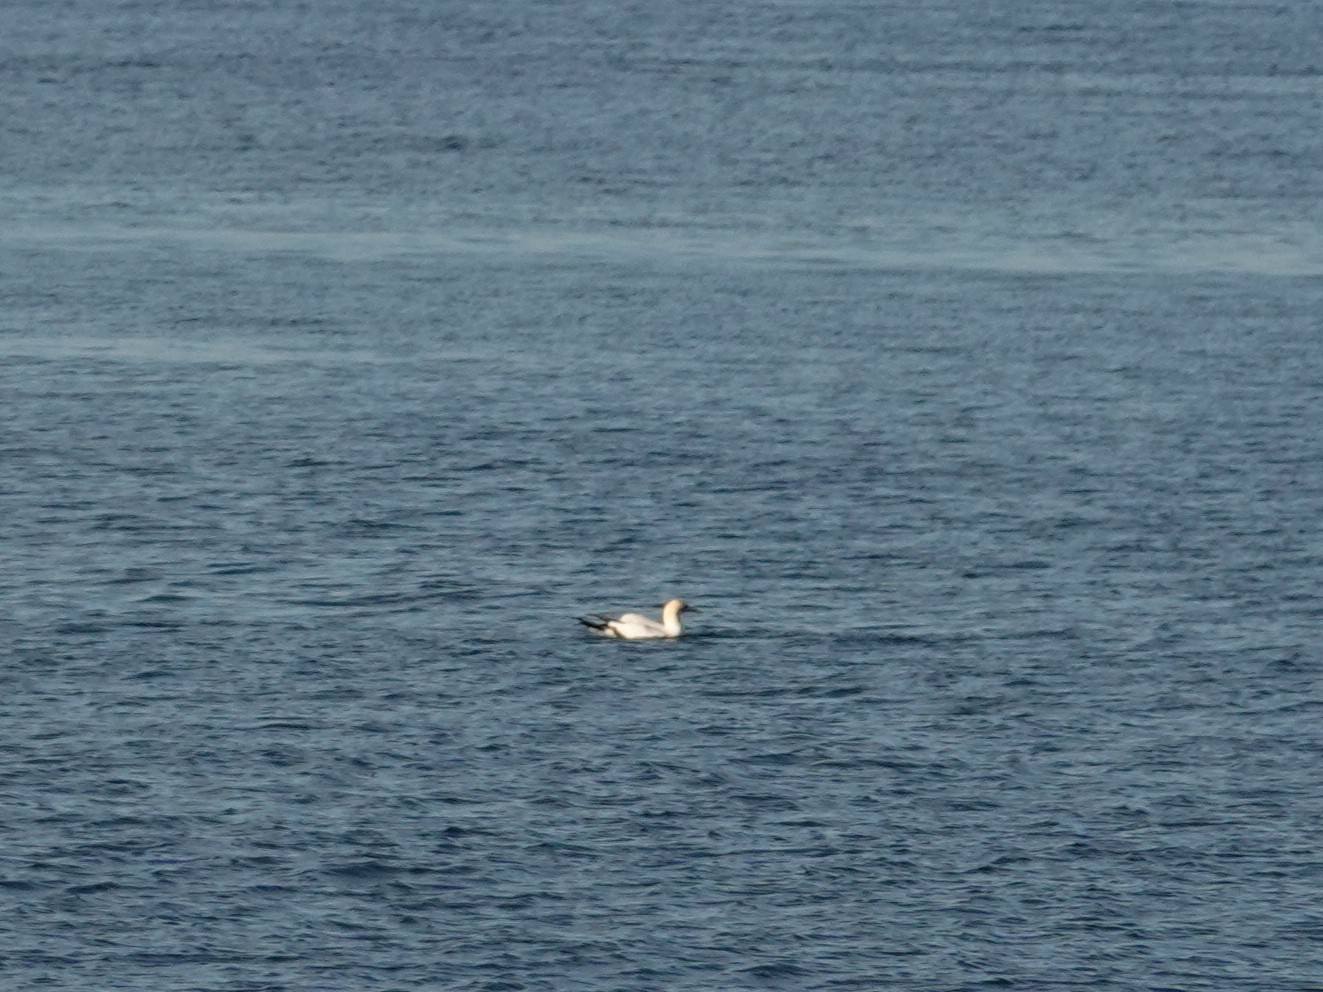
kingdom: Animalia
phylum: Chordata
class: Aves
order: Suliformes
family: Sulidae
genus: Morus
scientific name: Morus serrator
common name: Australasian gannet
